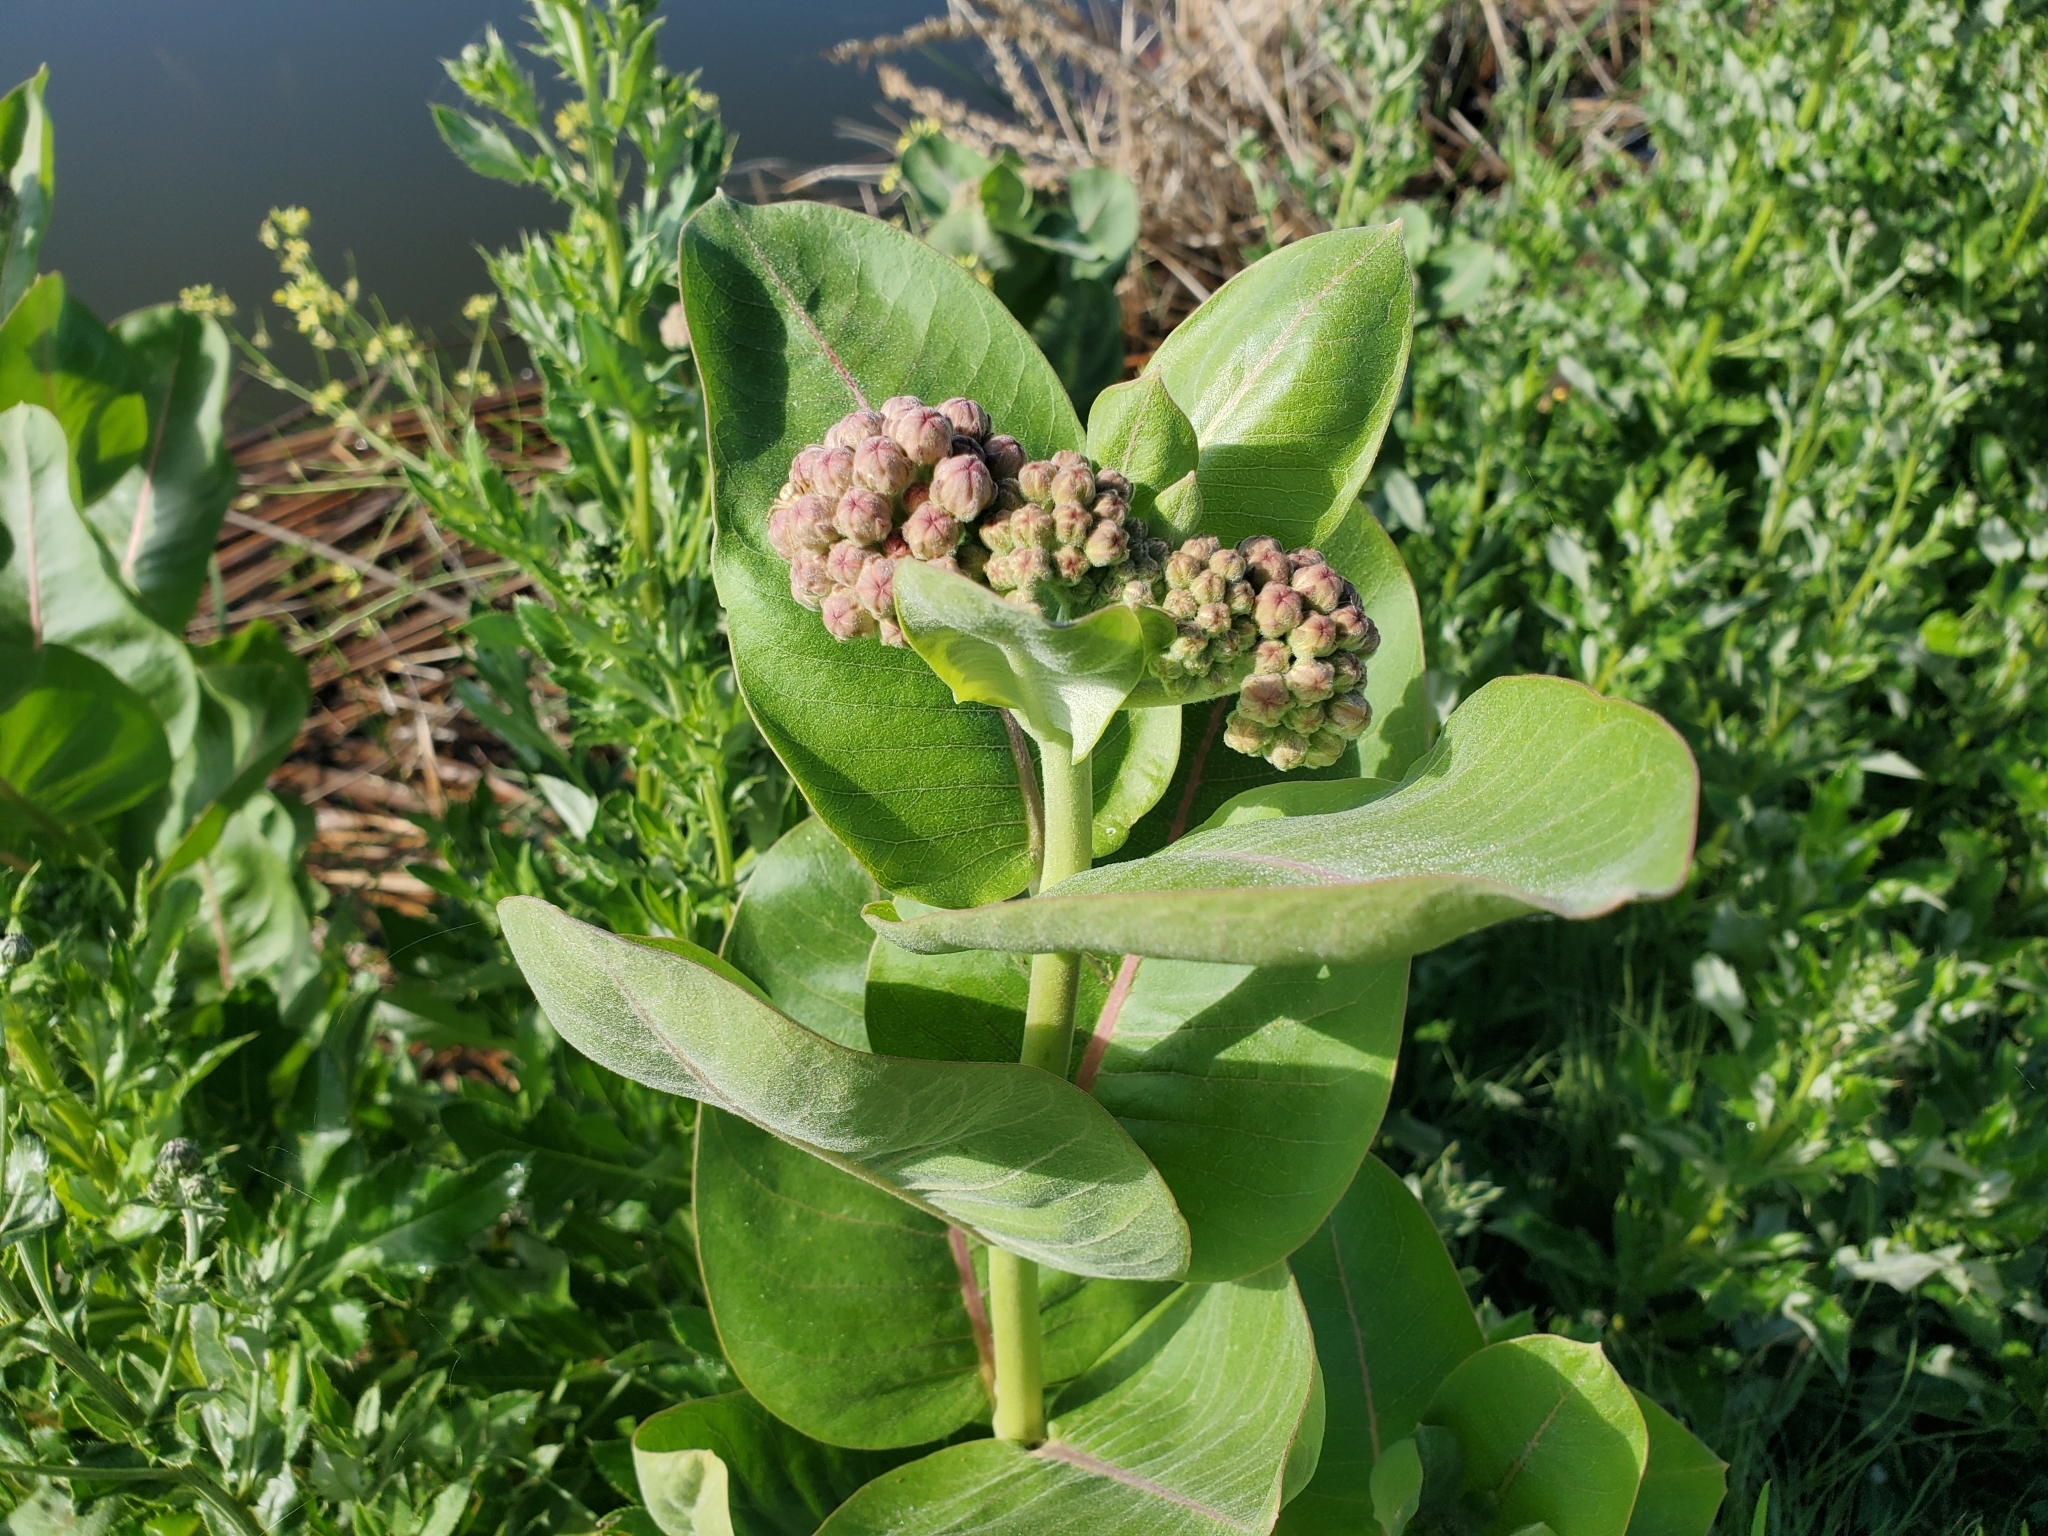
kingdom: Plantae
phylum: Tracheophyta
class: Magnoliopsida
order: Gentianales
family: Apocynaceae
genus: Asclepias
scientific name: Asclepias speciosa
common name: Showy milkweed
